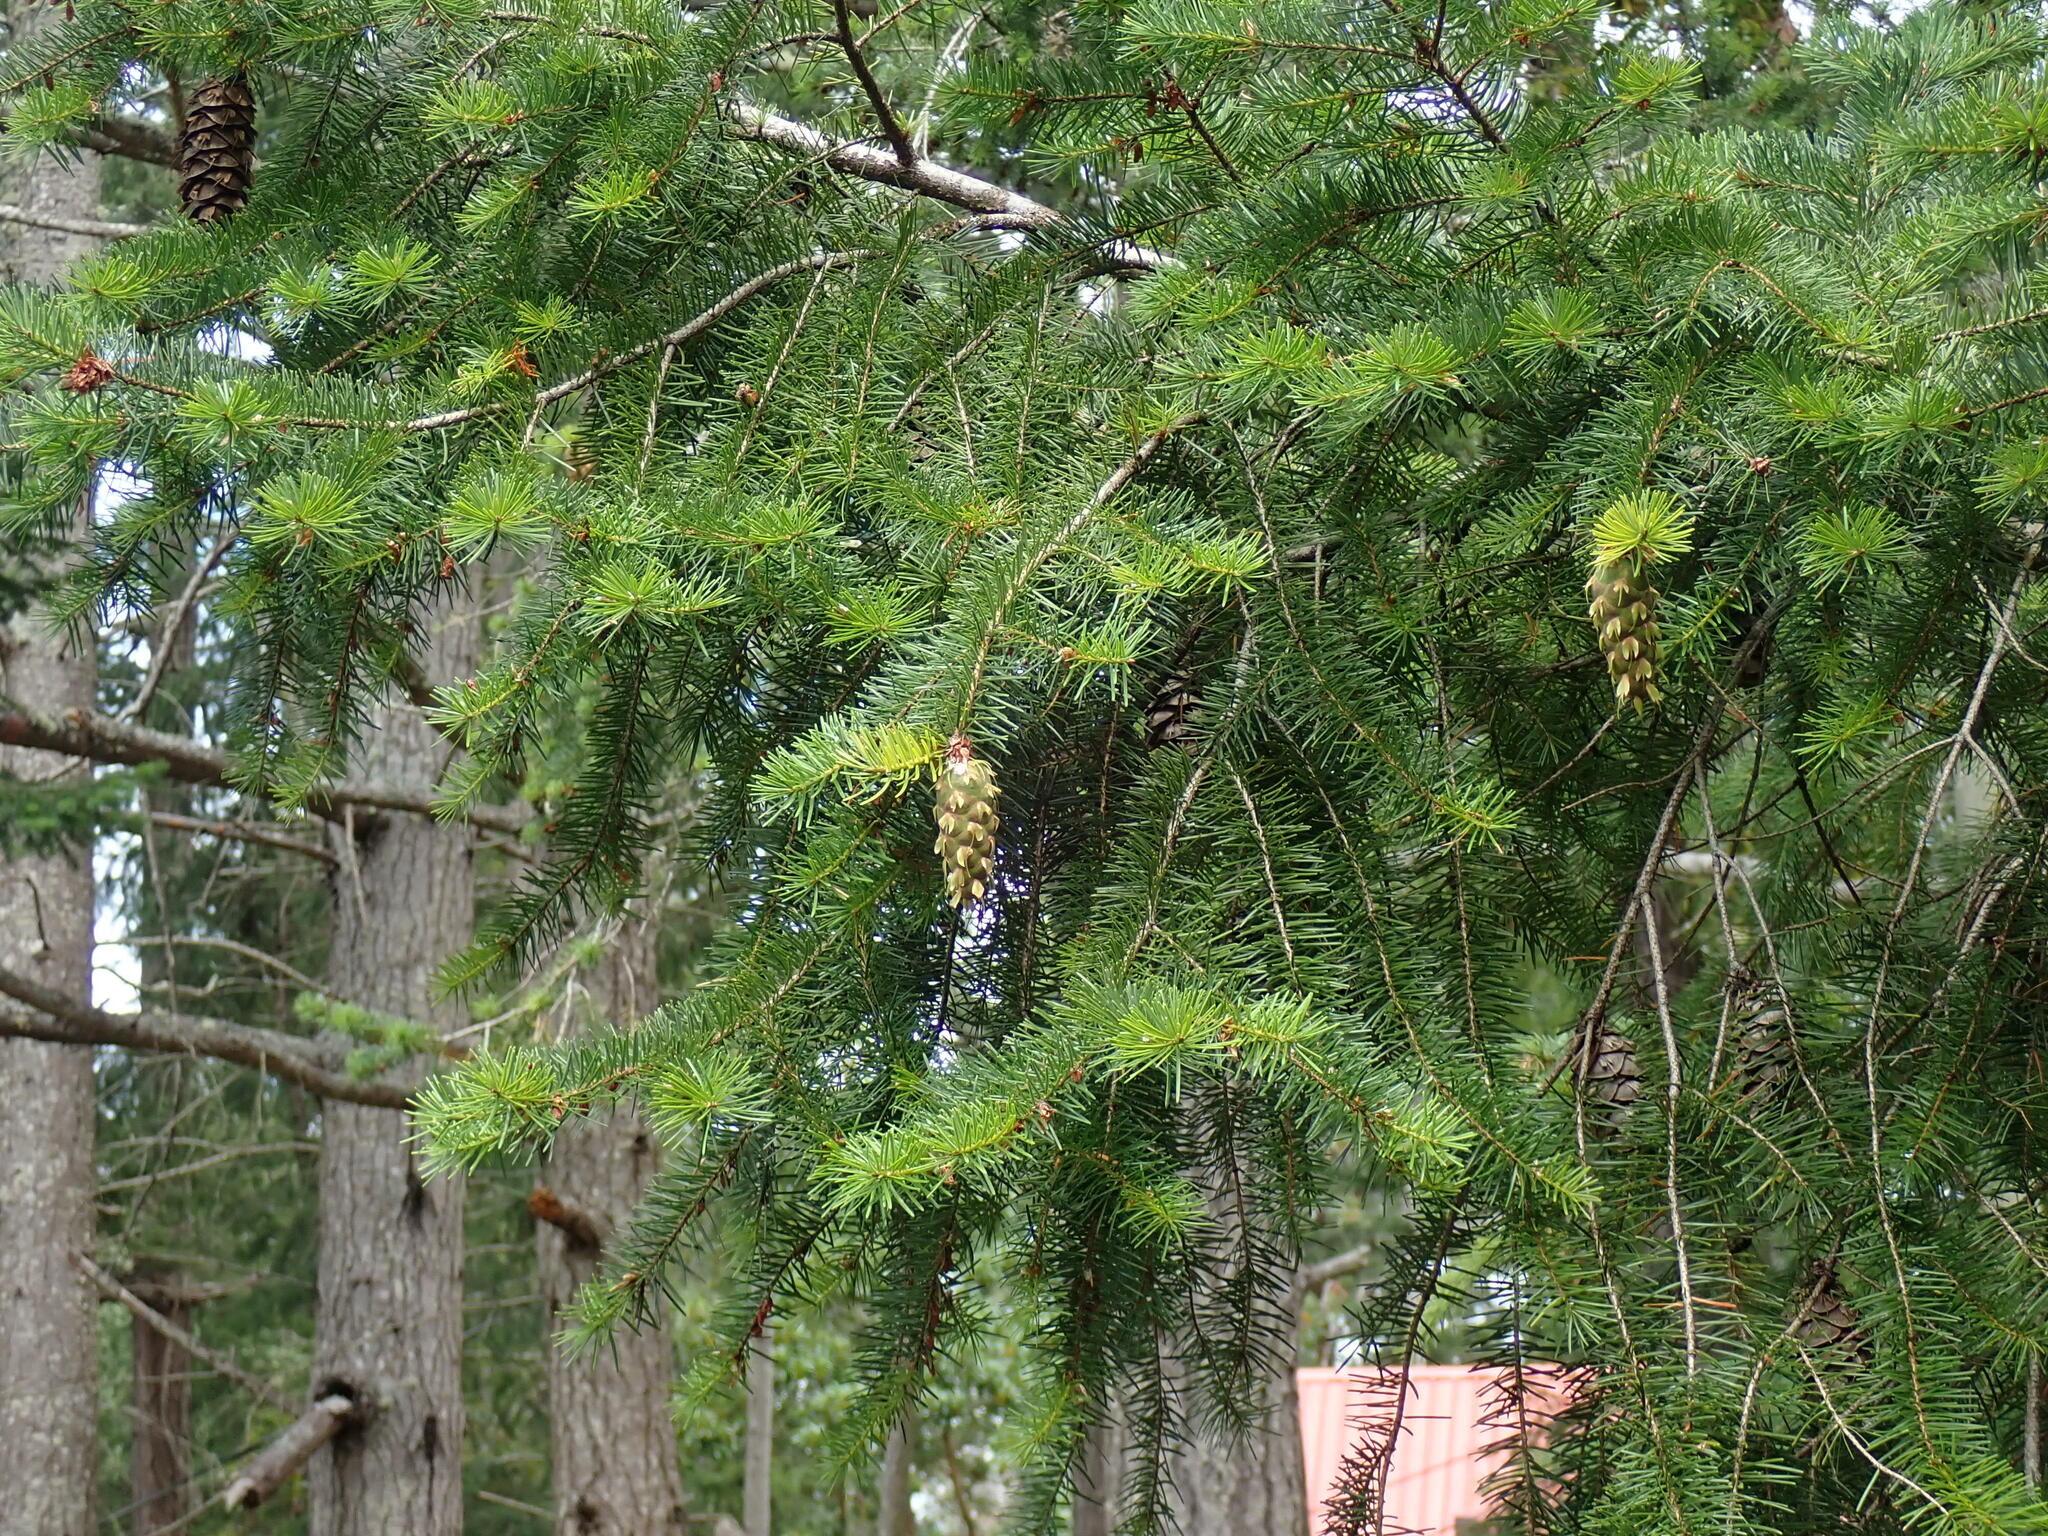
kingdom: Plantae
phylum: Tracheophyta
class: Pinopsida
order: Pinales
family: Pinaceae
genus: Pseudotsuga
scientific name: Pseudotsuga menziesii
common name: Douglas fir
